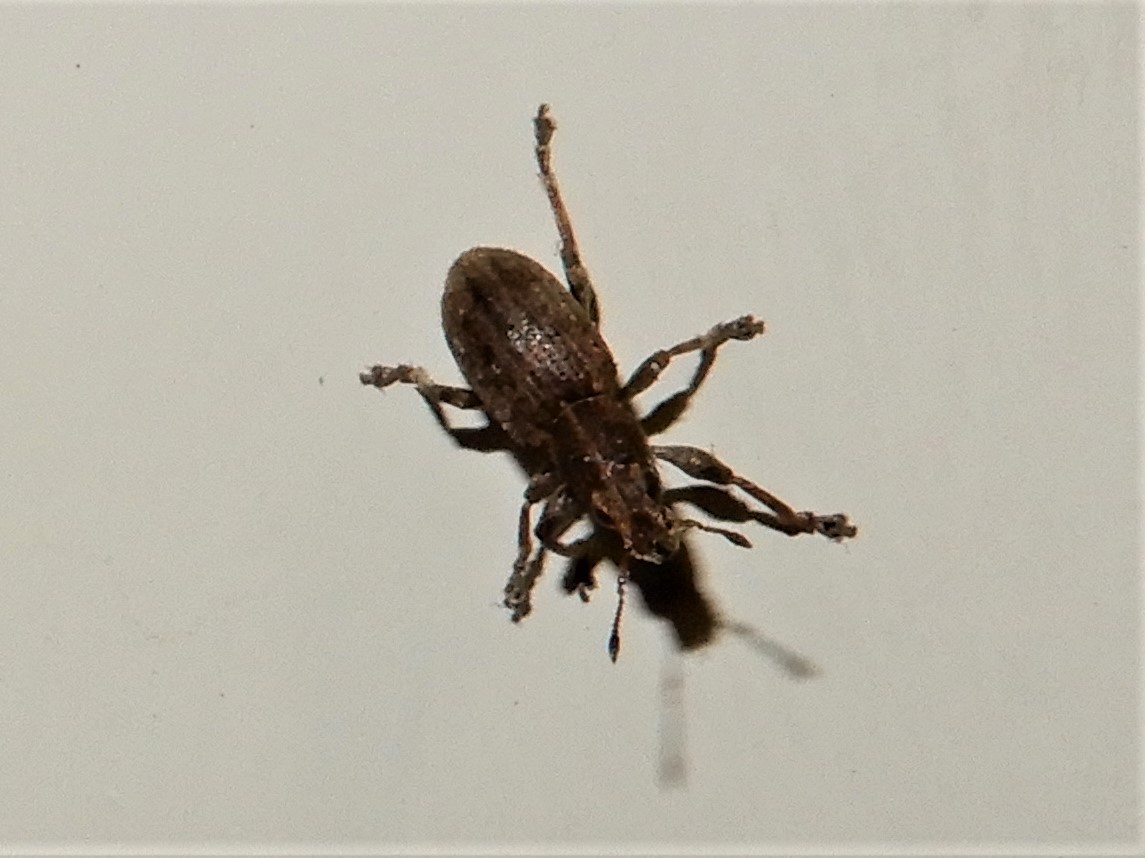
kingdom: Animalia
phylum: Arthropoda
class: Insecta
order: Coleoptera
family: Curculionidae
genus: Sitona
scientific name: Sitona obsoletus
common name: Weevil
